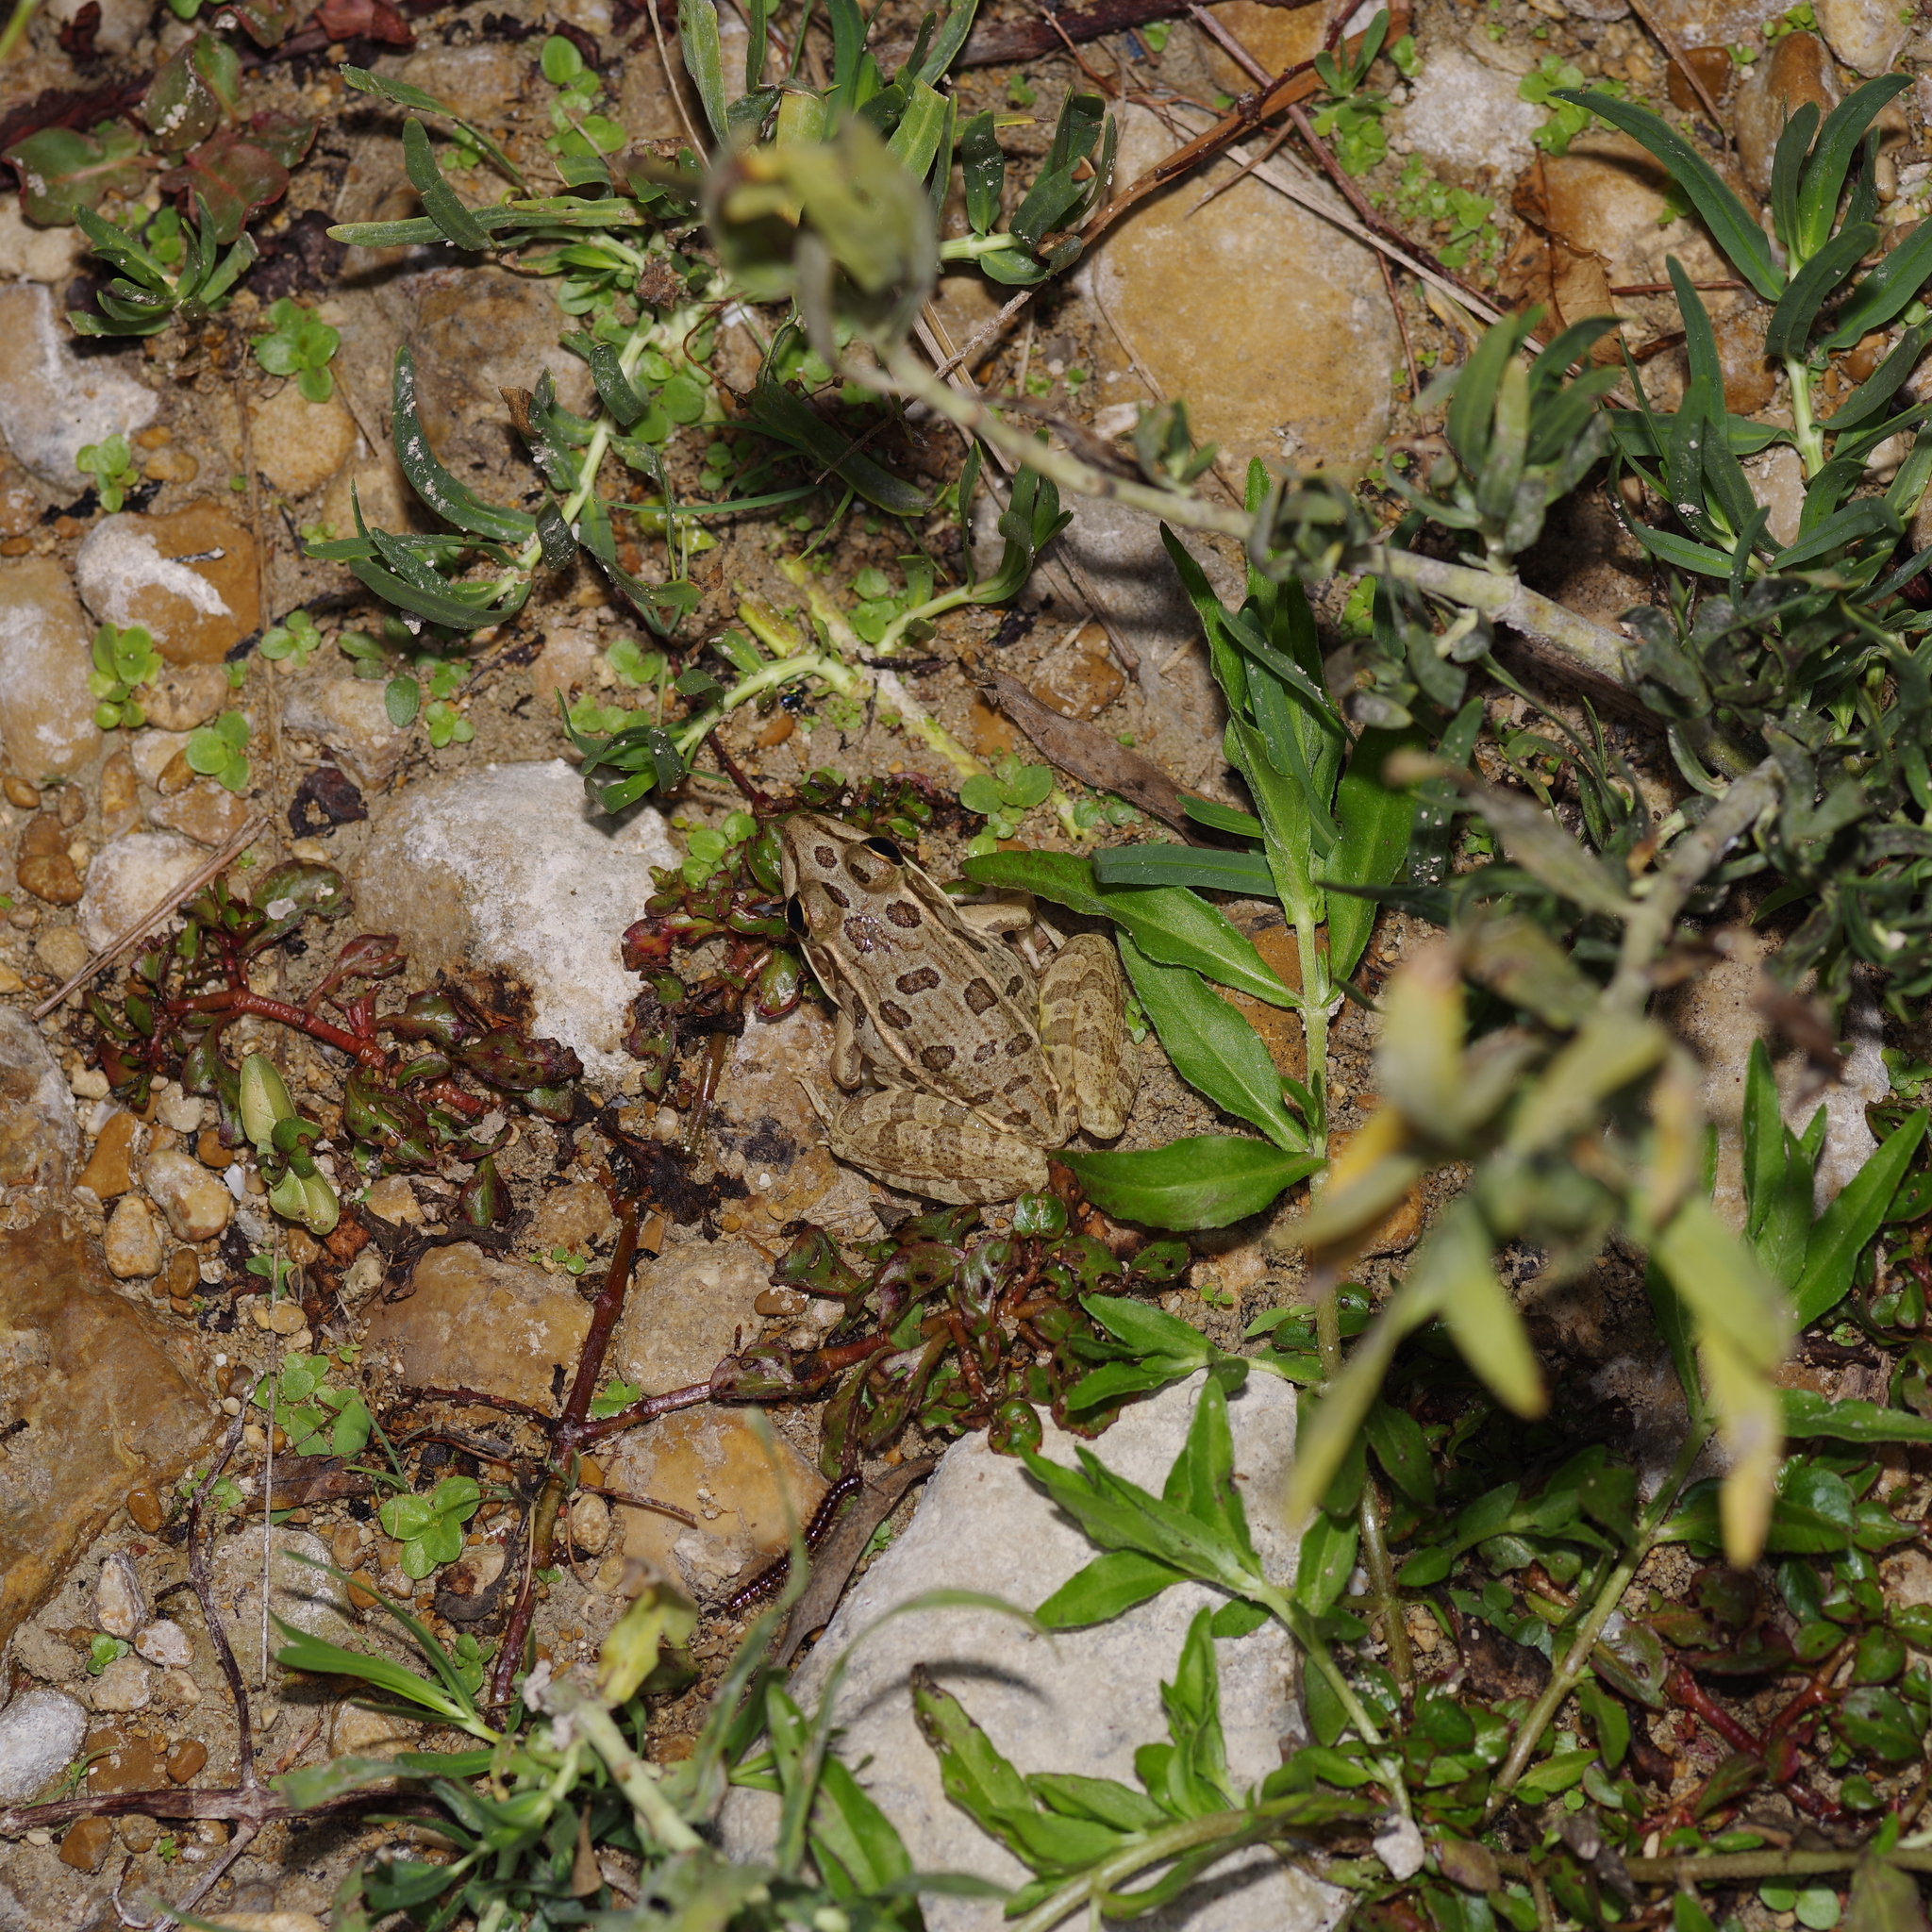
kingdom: Animalia
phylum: Chordata
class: Amphibia
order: Anura
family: Ranidae
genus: Lithobates
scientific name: Lithobates berlandieri
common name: Rio grande leopard frog
